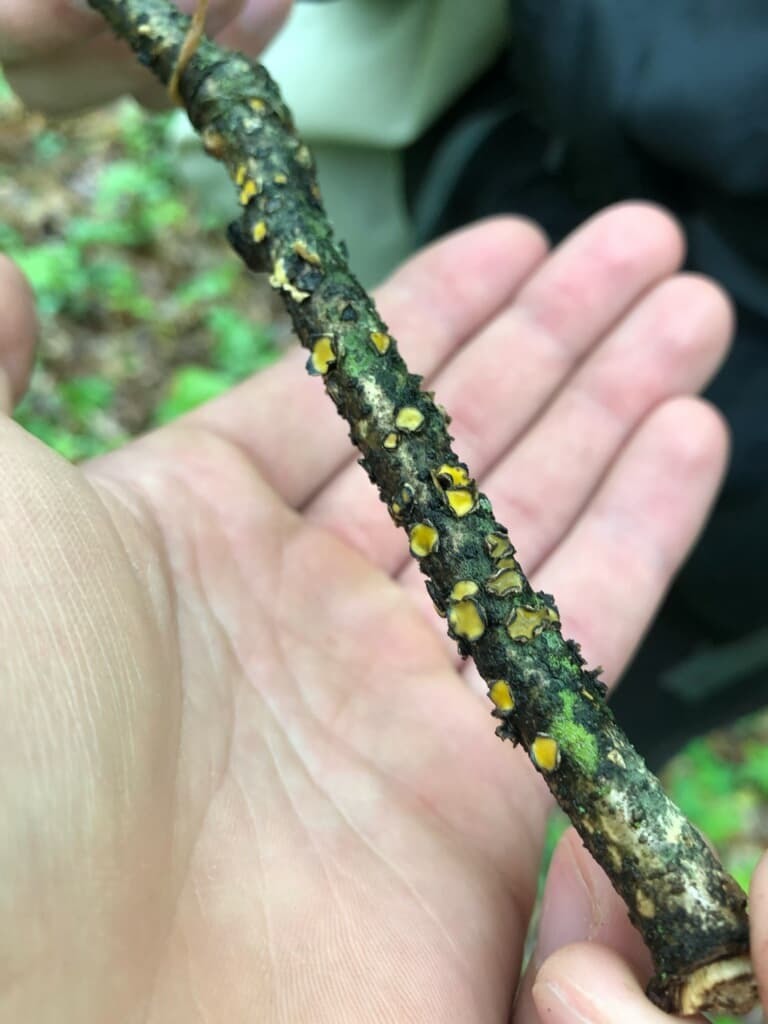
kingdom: Fungi
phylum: Ascomycota
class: Leotiomycetes
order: Rhytismatales
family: Rhytismataceae
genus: Coccomyces
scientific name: Coccomyces triangularis
